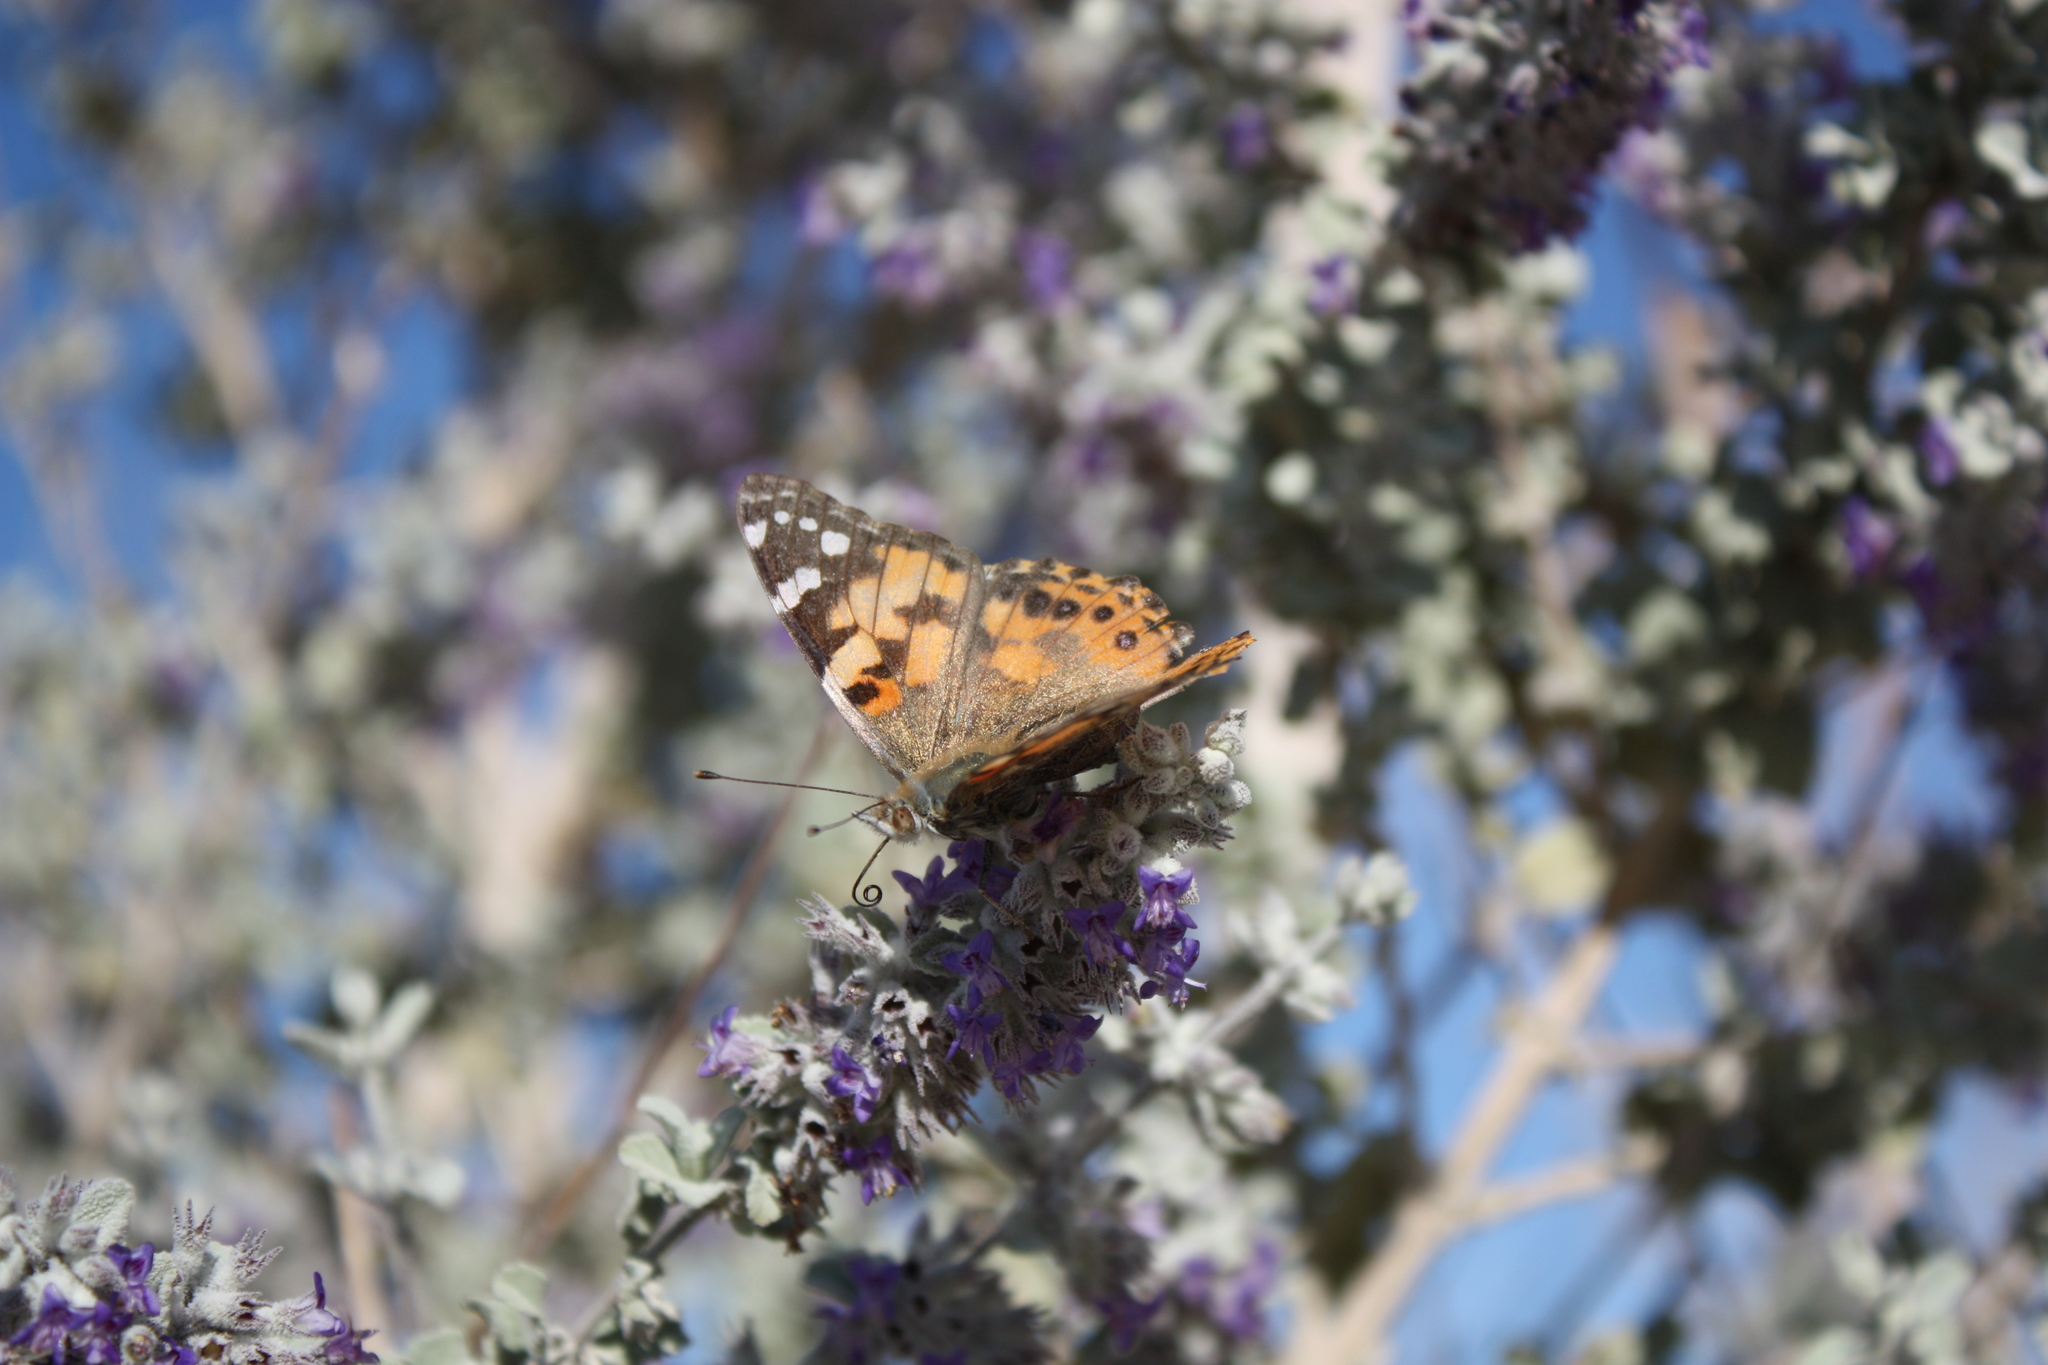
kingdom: Animalia
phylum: Arthropoda
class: Insecta
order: Lepidoptera
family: Nymphalidae
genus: Vanessa
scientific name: Vanessa cardui
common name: Painted lady
